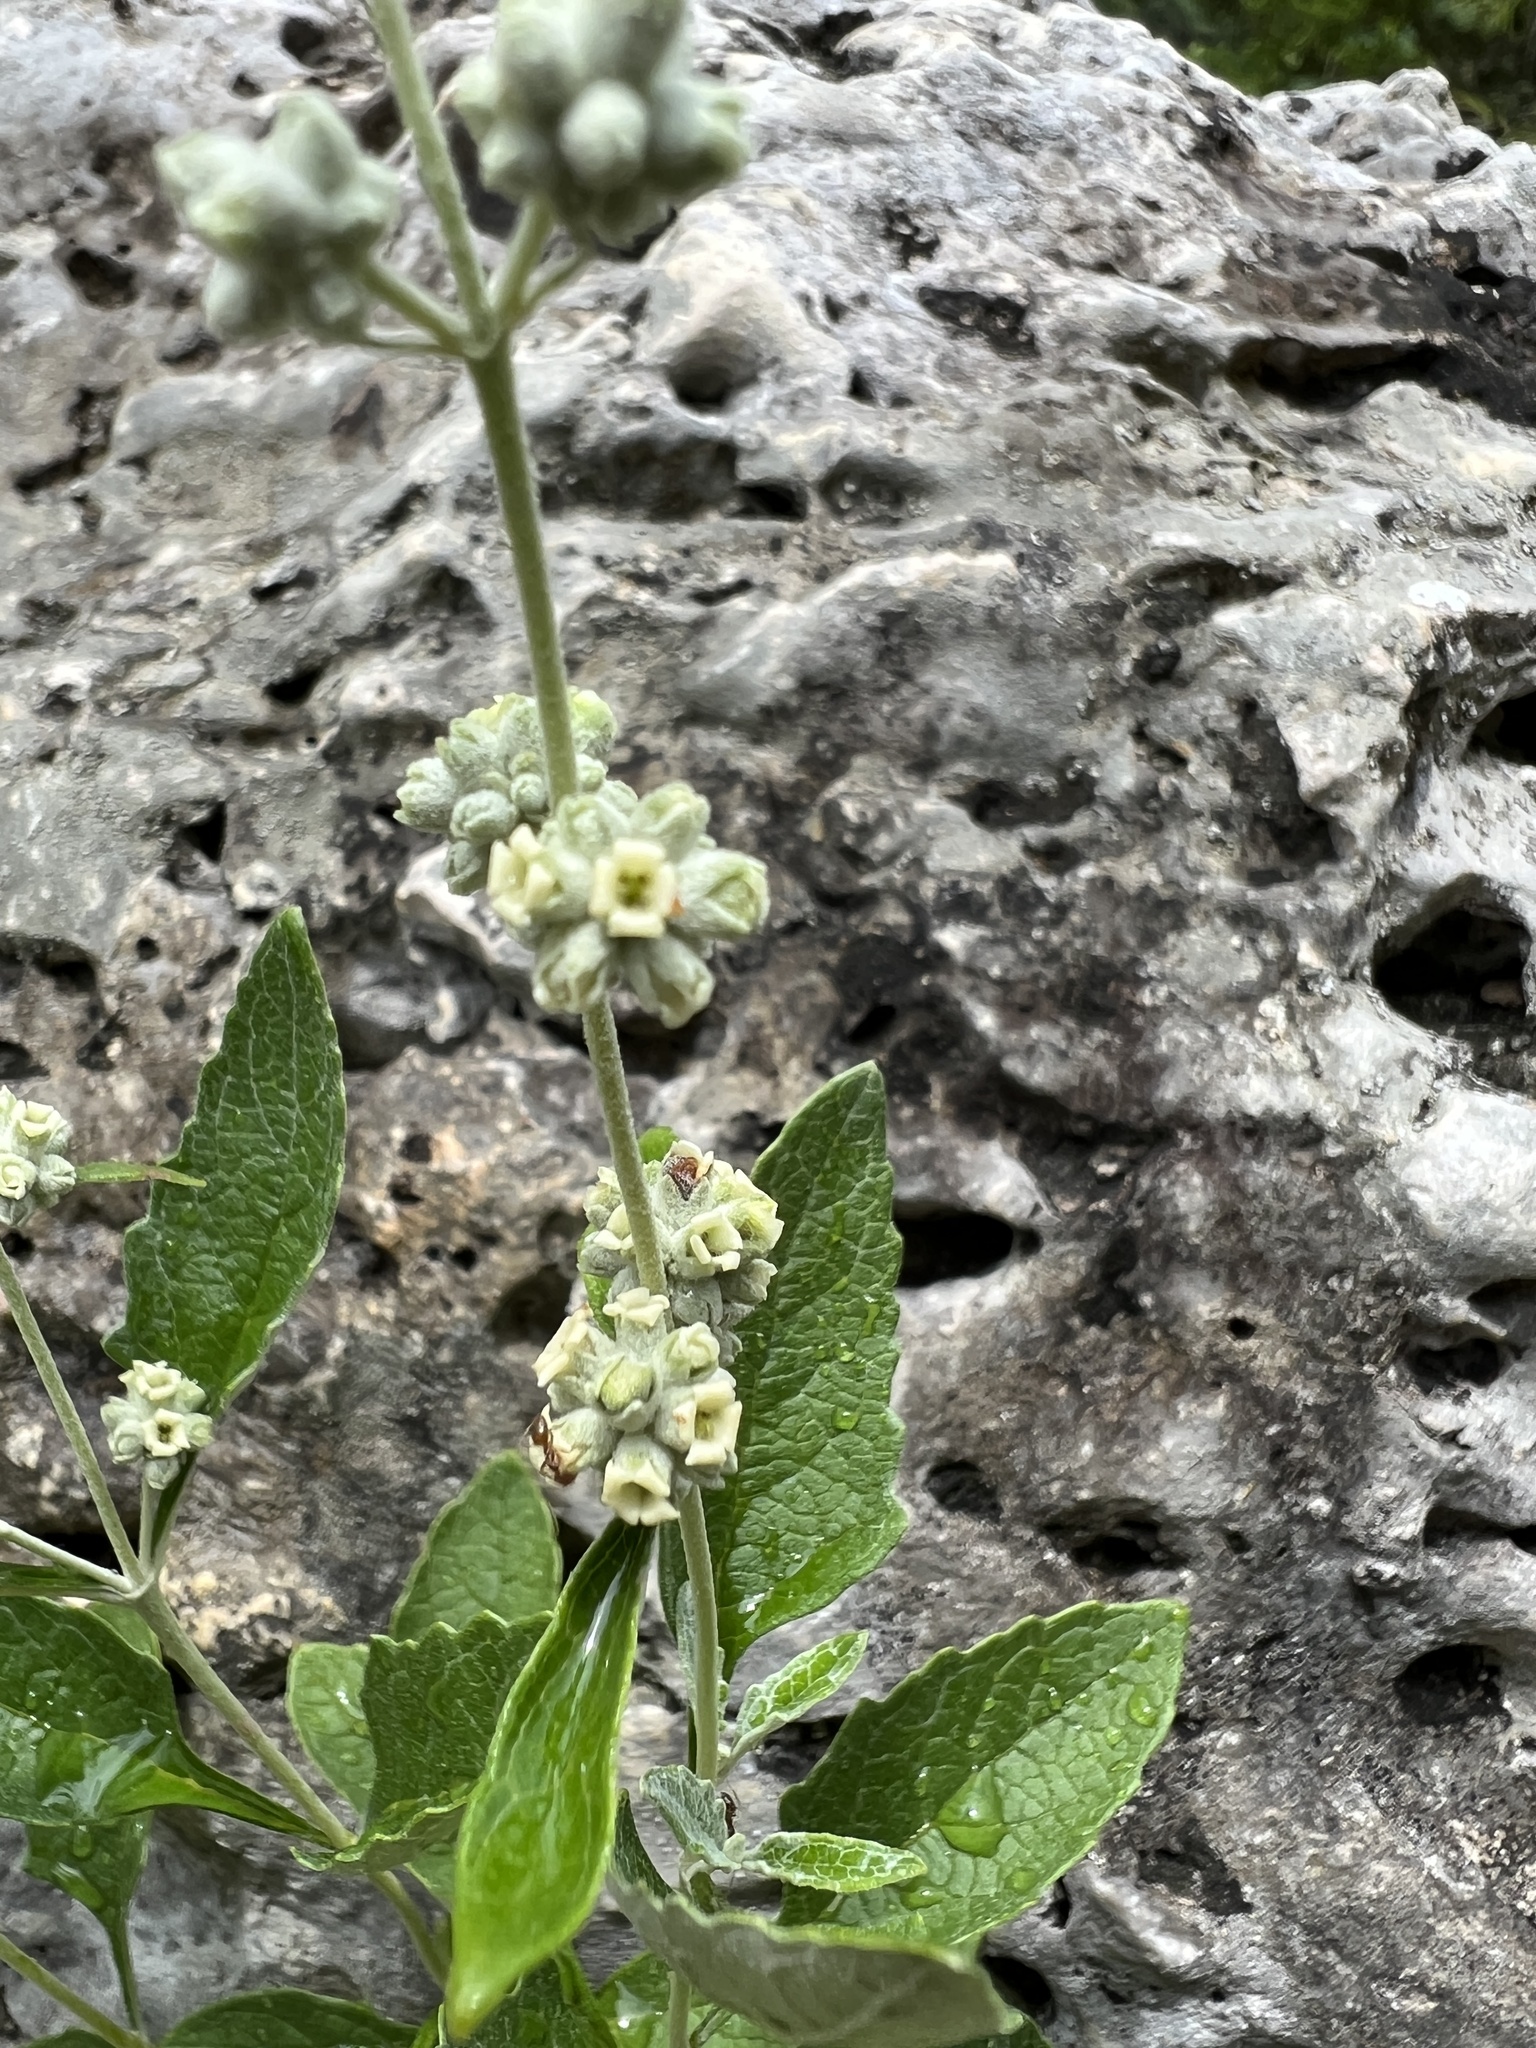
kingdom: Plantae
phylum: Tracheophyta
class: Magnoliopsida
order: Lamiales
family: Scrophulariaceae
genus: Buddleja
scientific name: Buddleja racemosa
